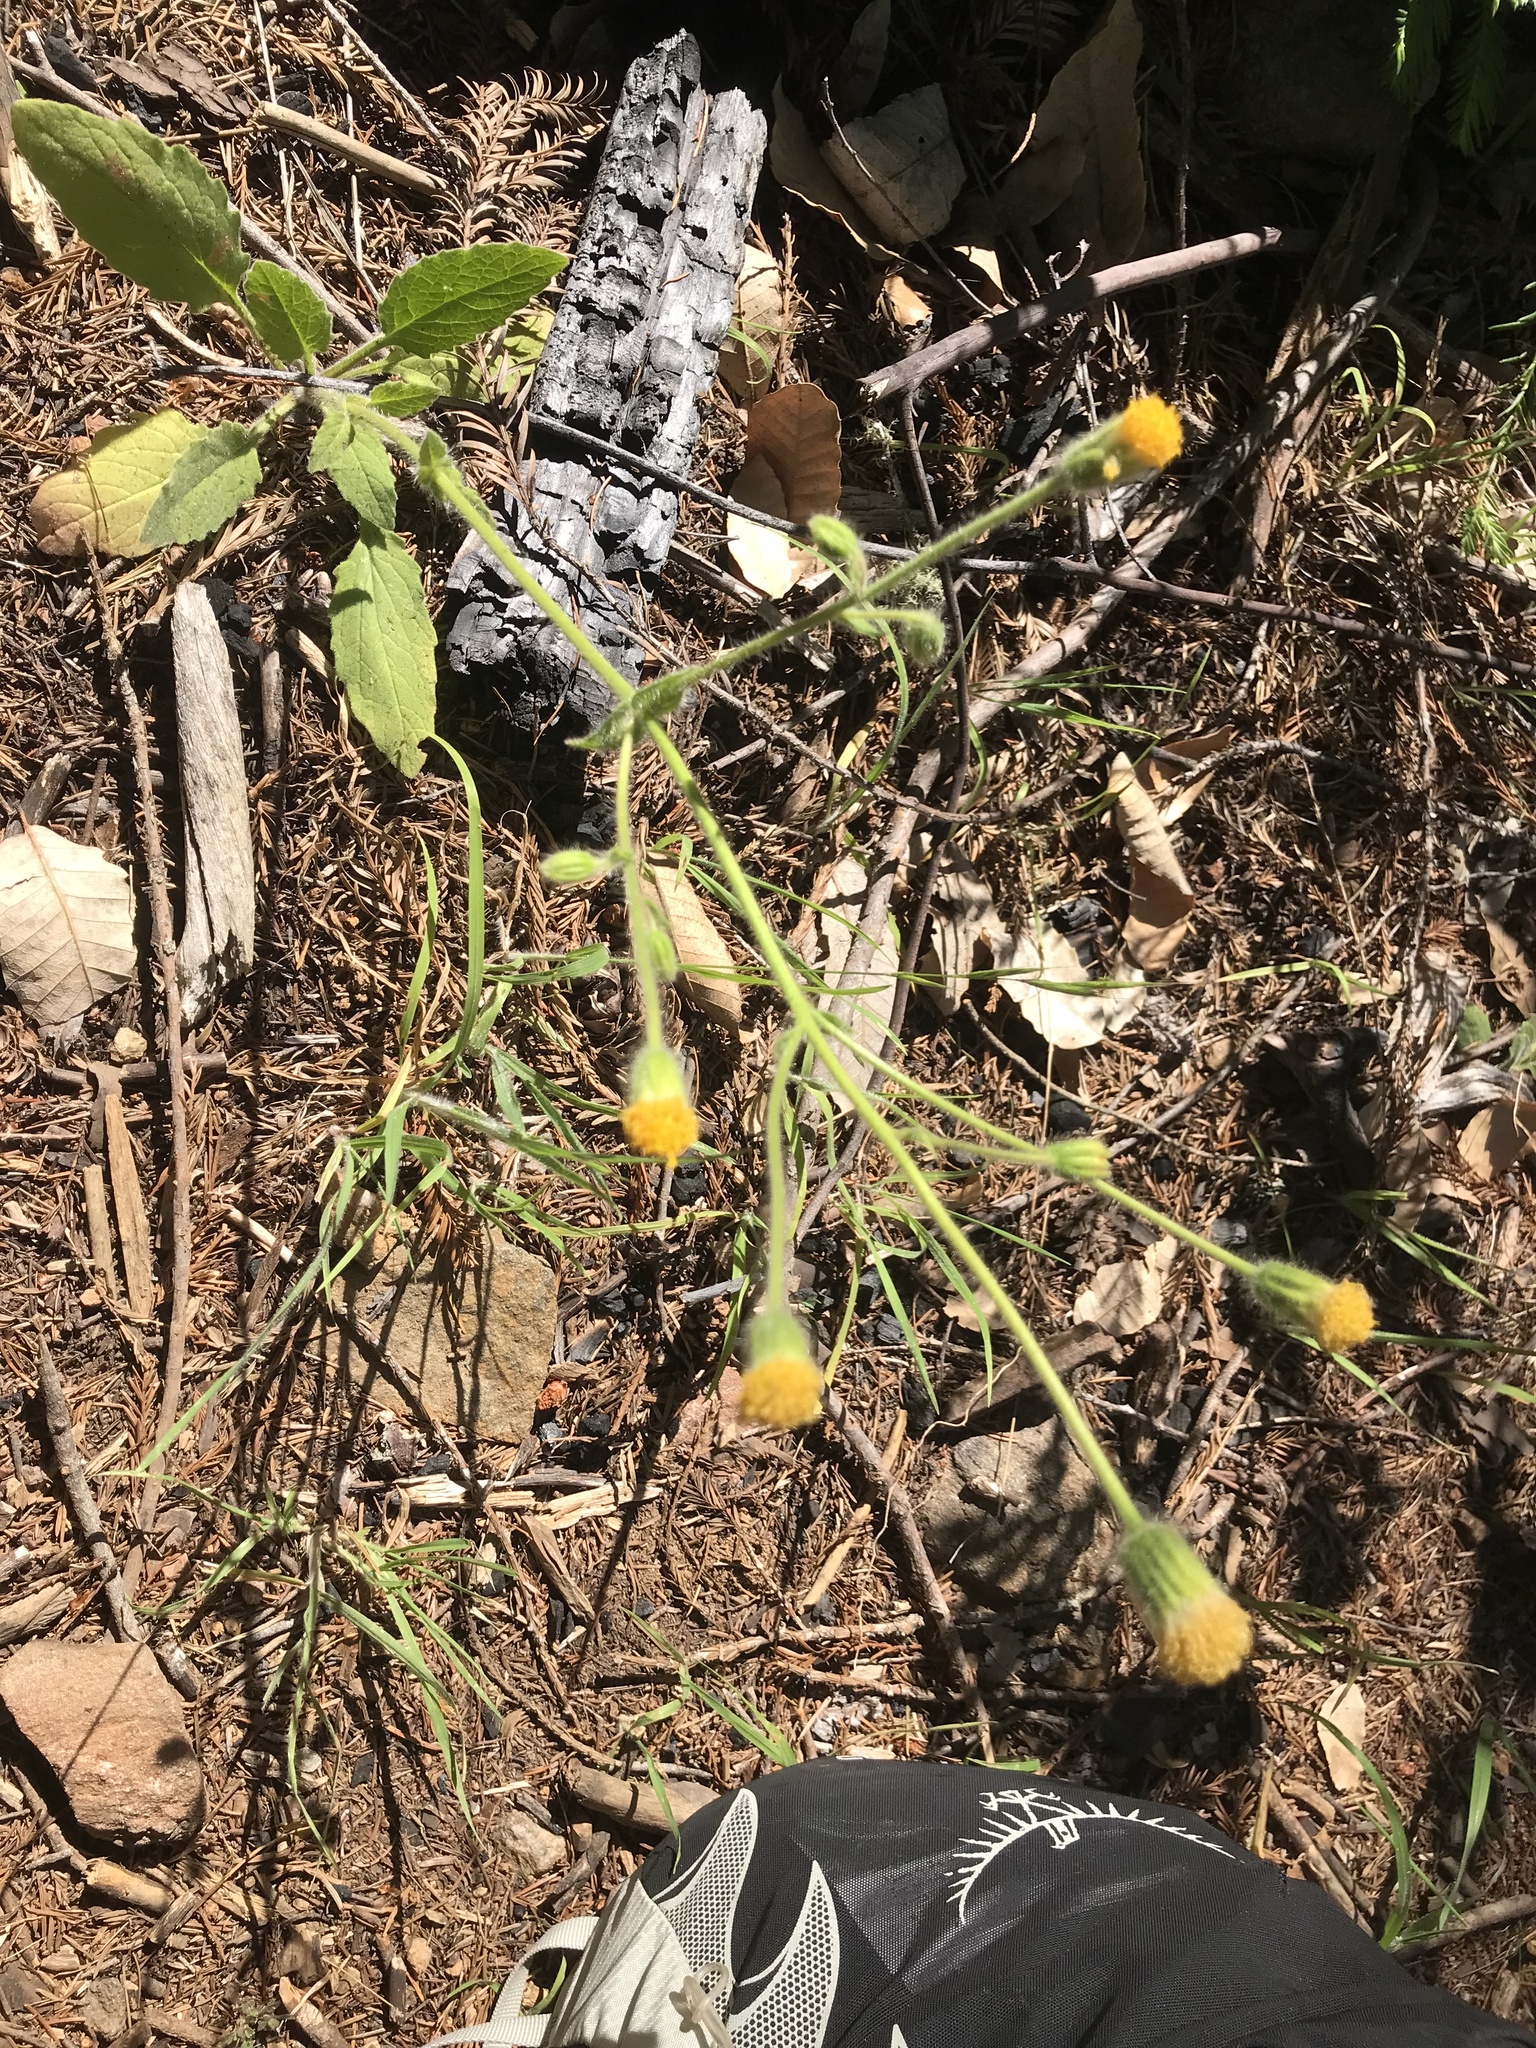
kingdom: Plantae
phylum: Tracheophyta
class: Magnoliopsida
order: Asterales
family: Asteraceae
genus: Arnica
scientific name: Arnica discoidea
